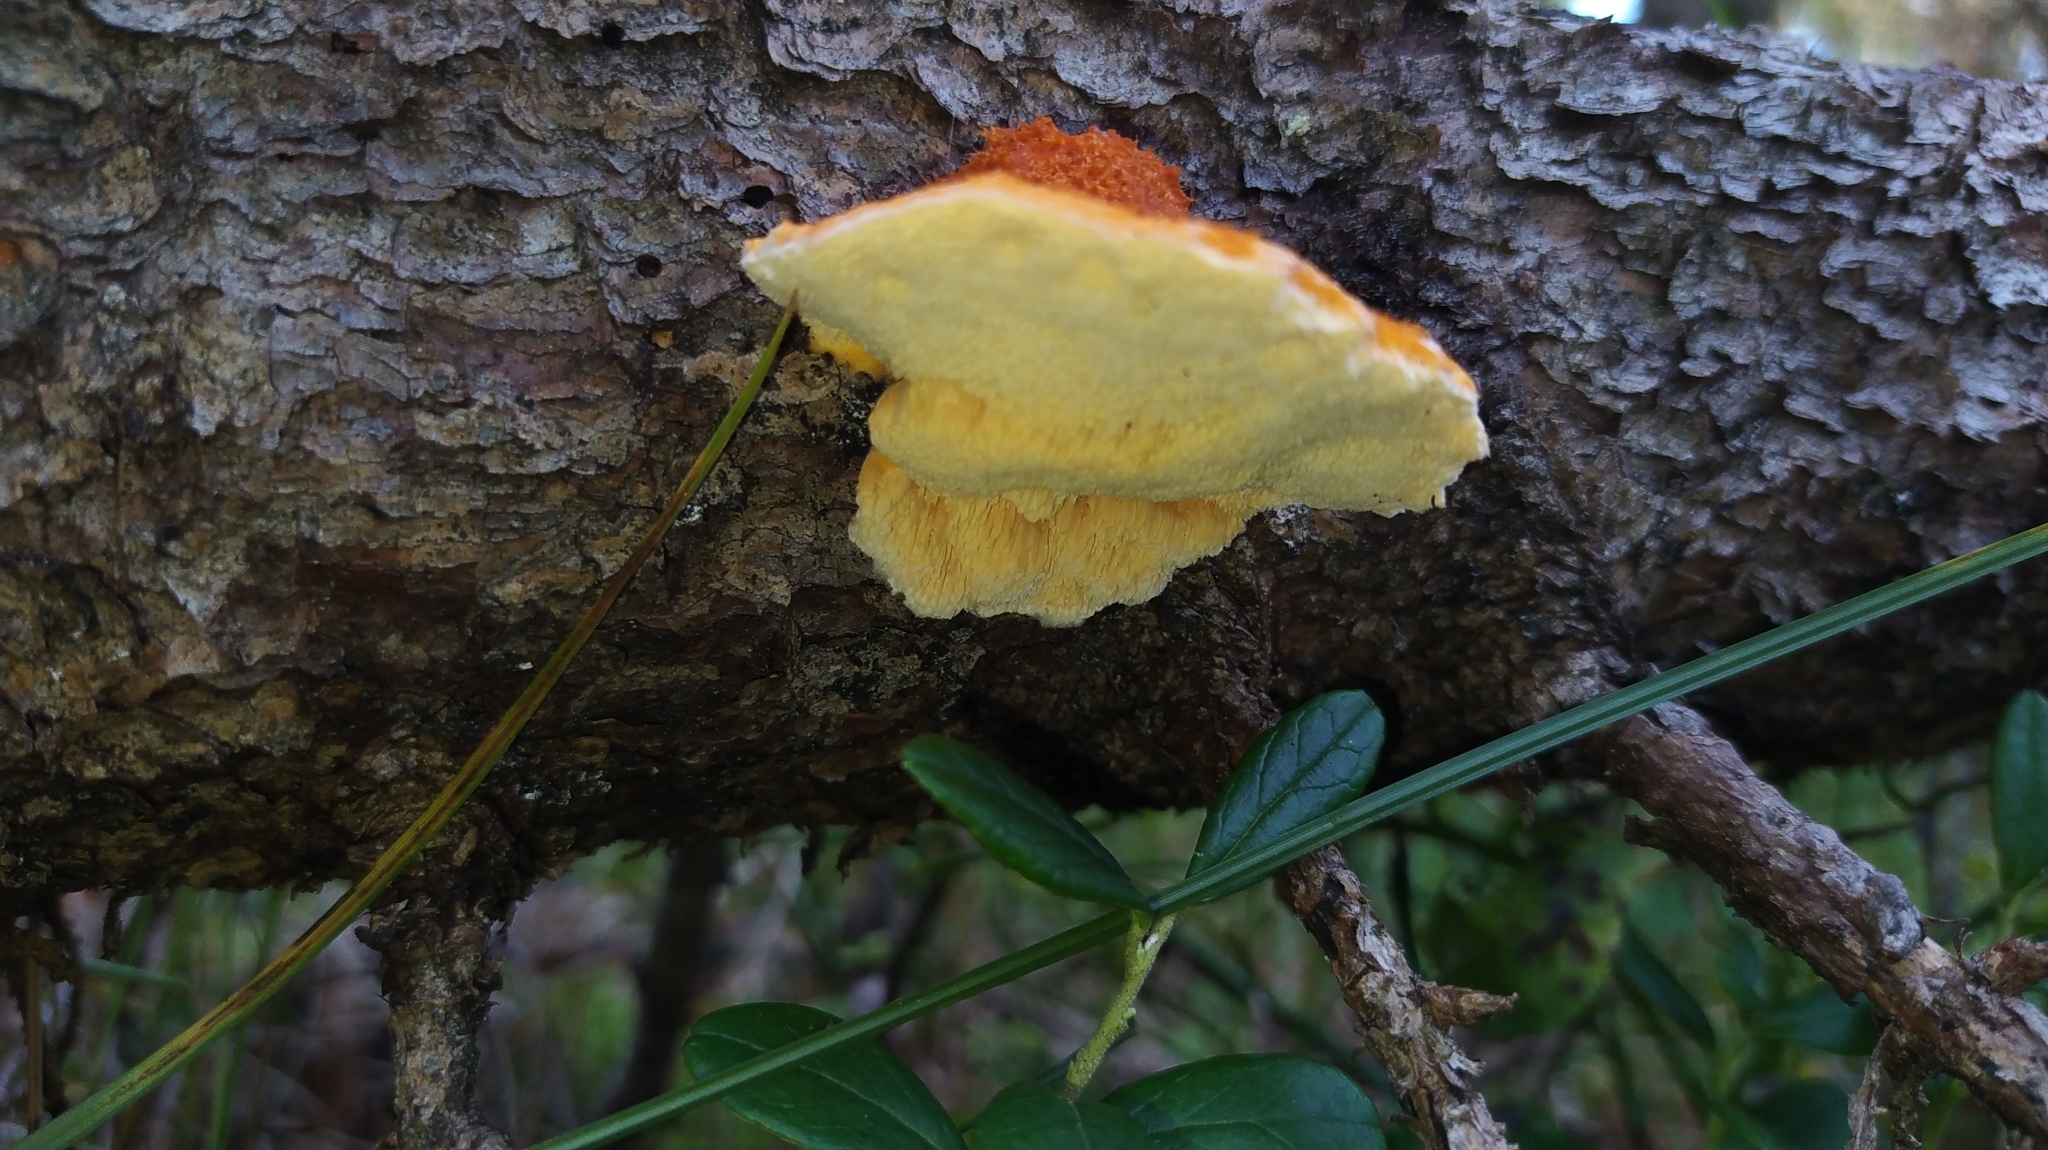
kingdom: Fungi
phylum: Basidiomycota
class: Agaricomycetes
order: Polyporales
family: Pycnoporellaceae
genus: Pycnoporellus
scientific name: Pycnoporellus fulgens
